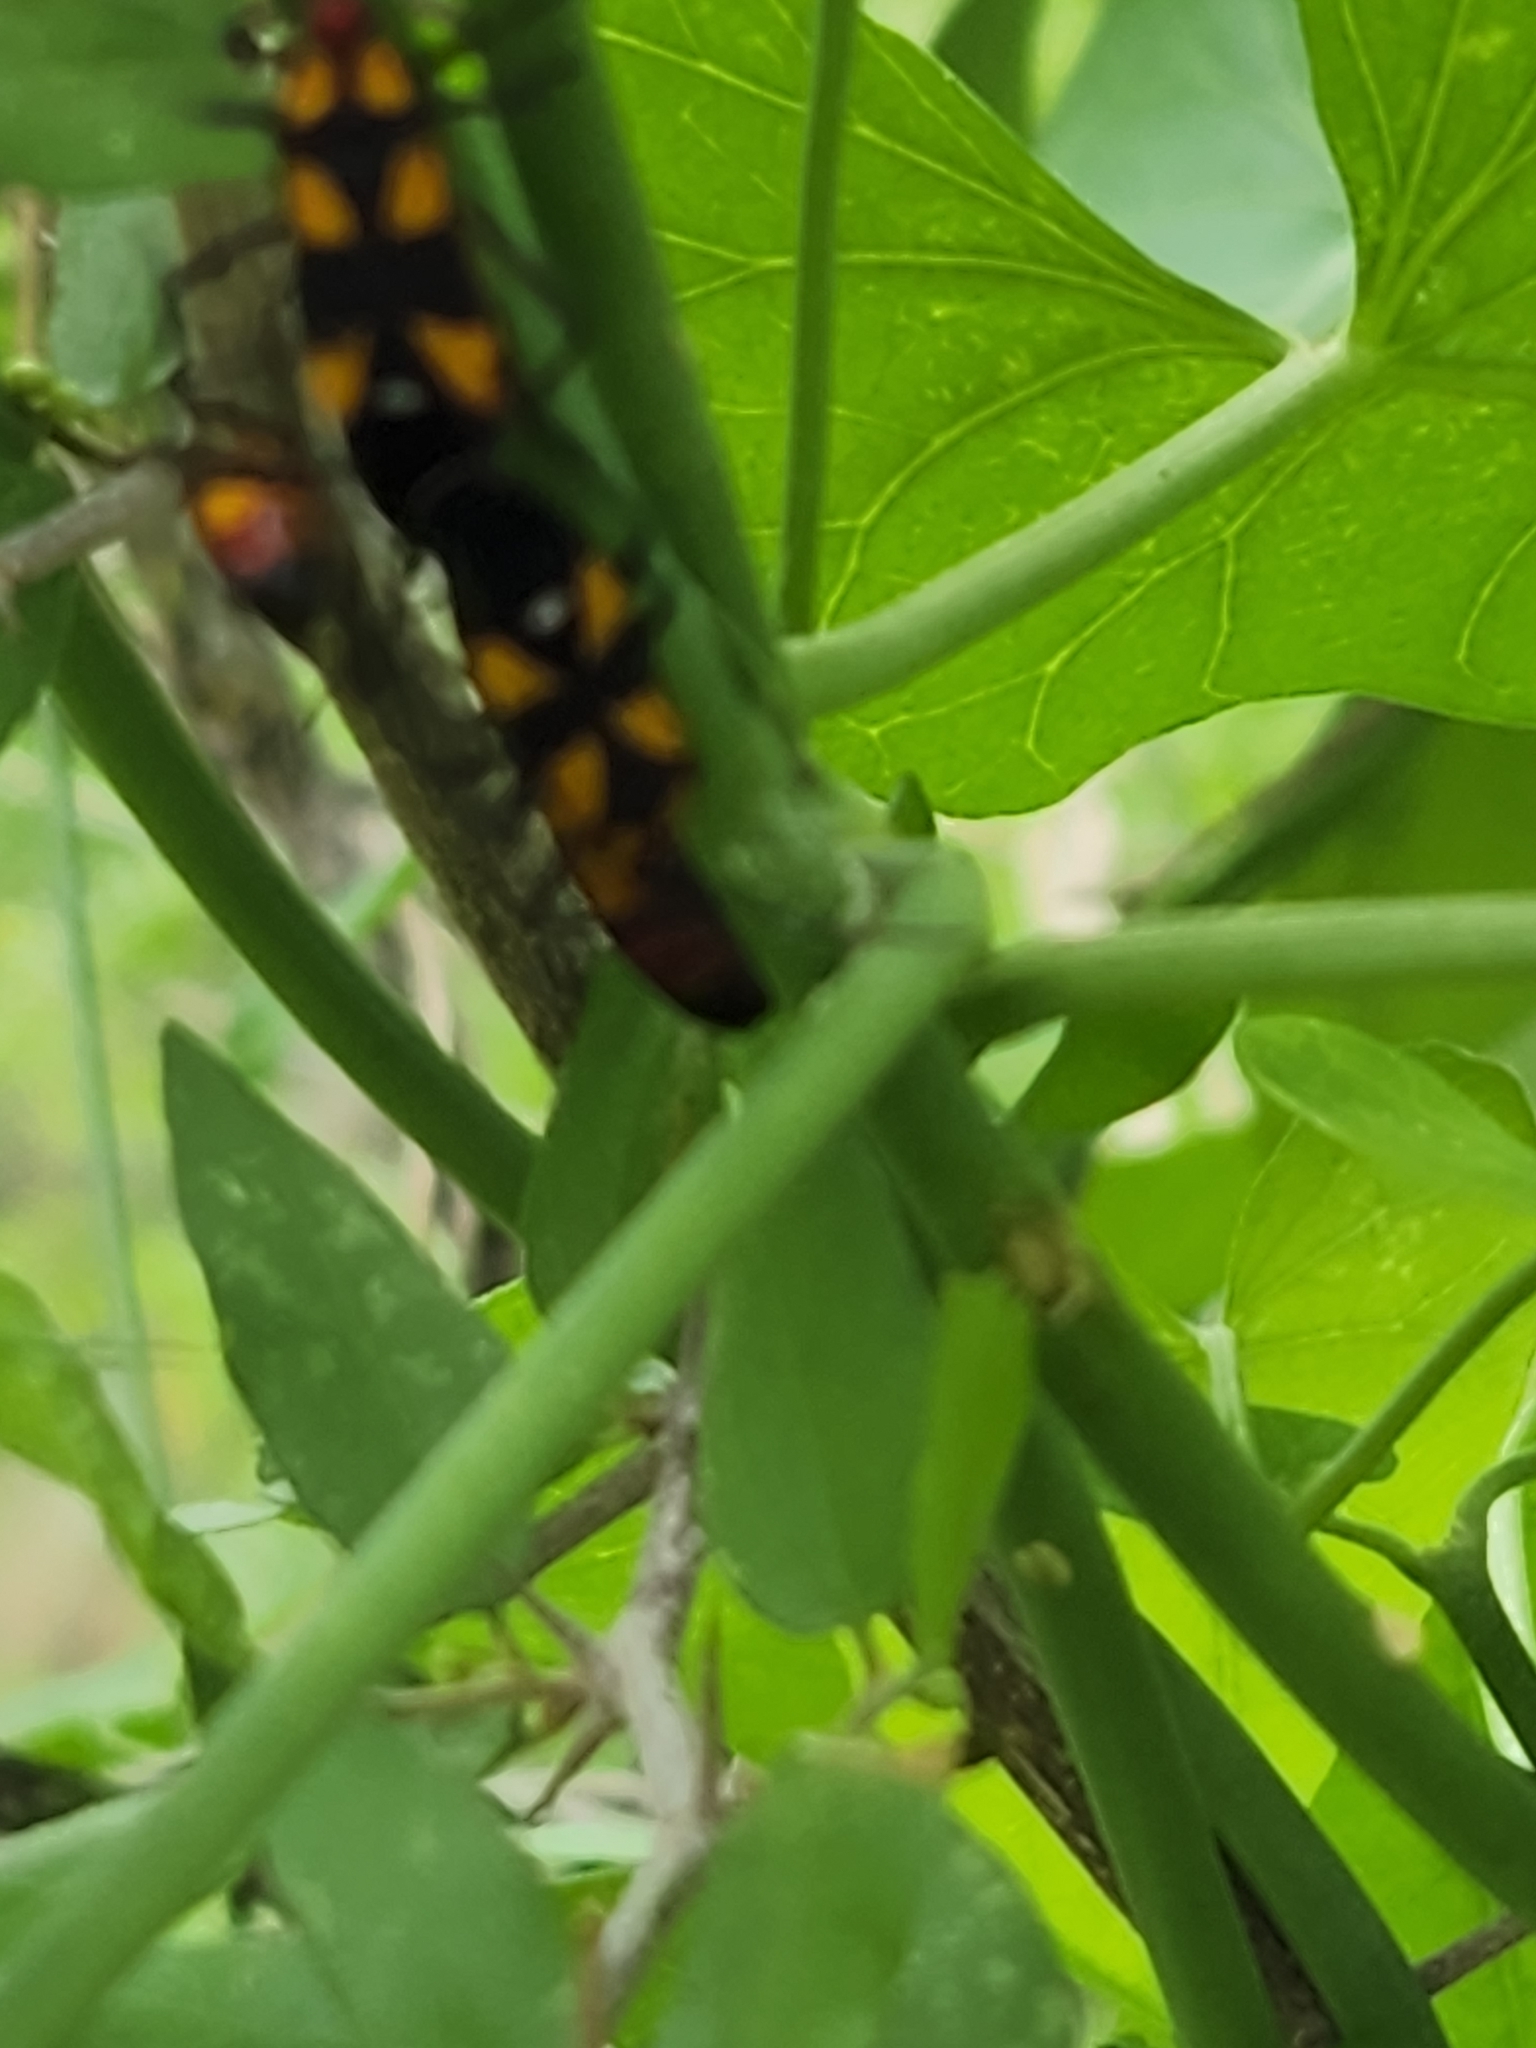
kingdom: Animalia
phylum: Arthropoda
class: Insecta
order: Hemiptera
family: Lygaeidae
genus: Oncopeltus
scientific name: Oncopeltus sexmaculatus
